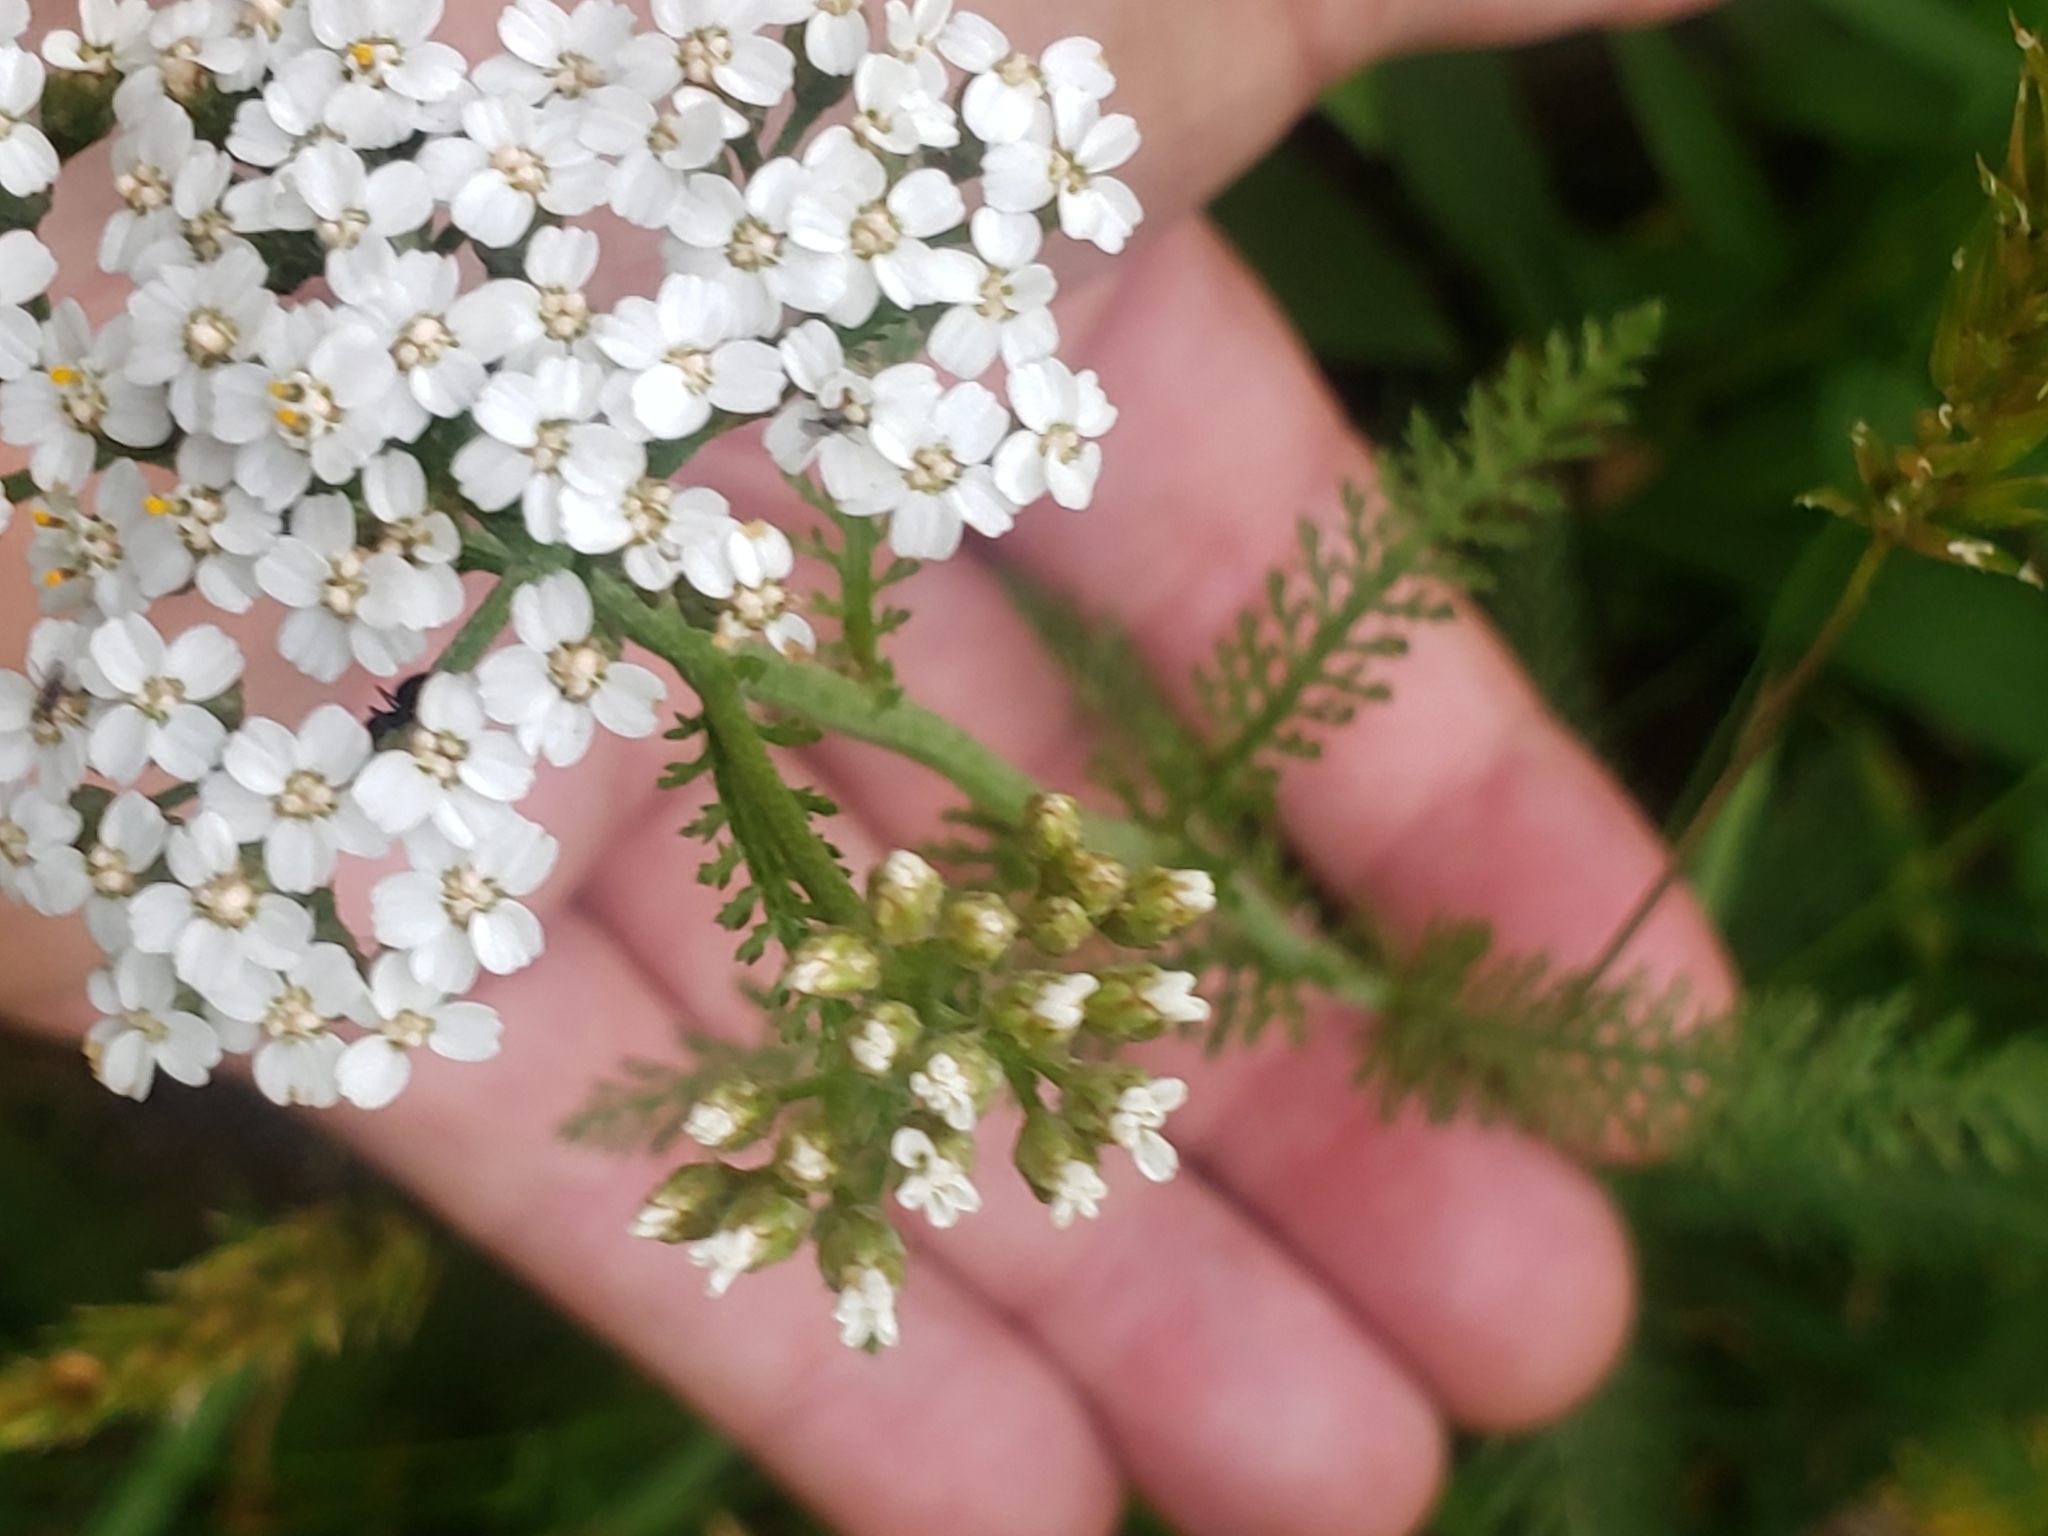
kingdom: Plantae
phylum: Tracheophyta
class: Magnoliopsida
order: Asterales
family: Asteraceae
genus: Achillea
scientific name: Achillea millefolium
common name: Yarrow
